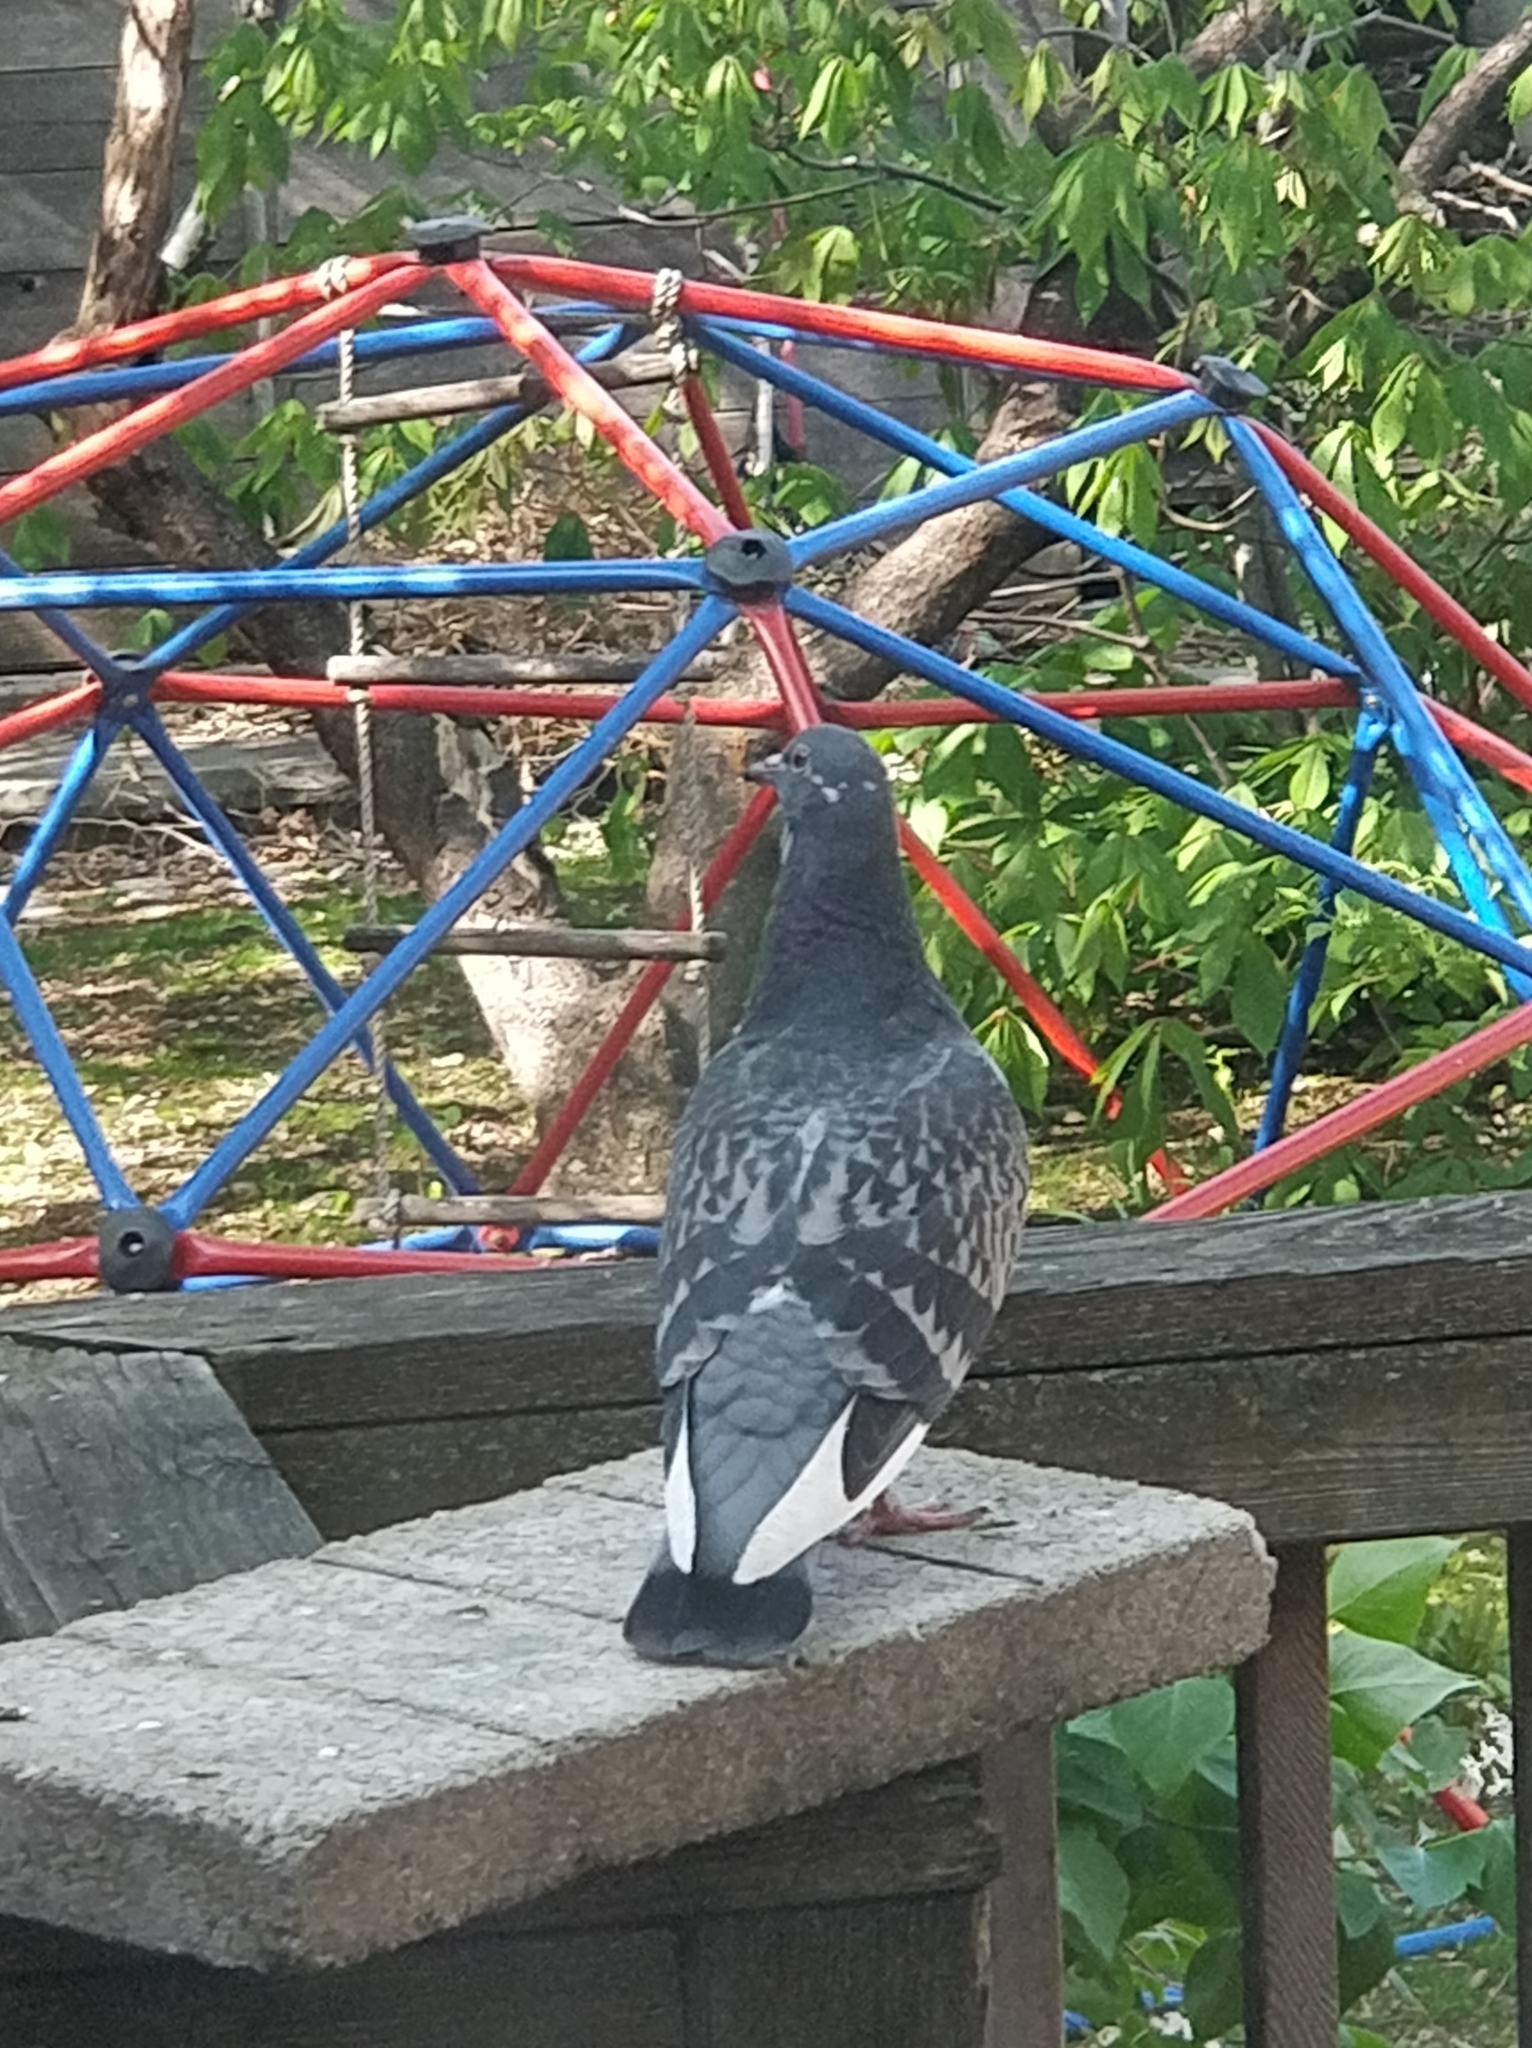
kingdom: Animalia
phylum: Chordata
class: Aves
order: Columbiformes
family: Columbidae
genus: Columba
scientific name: Columba livia
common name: Rock pigeon
